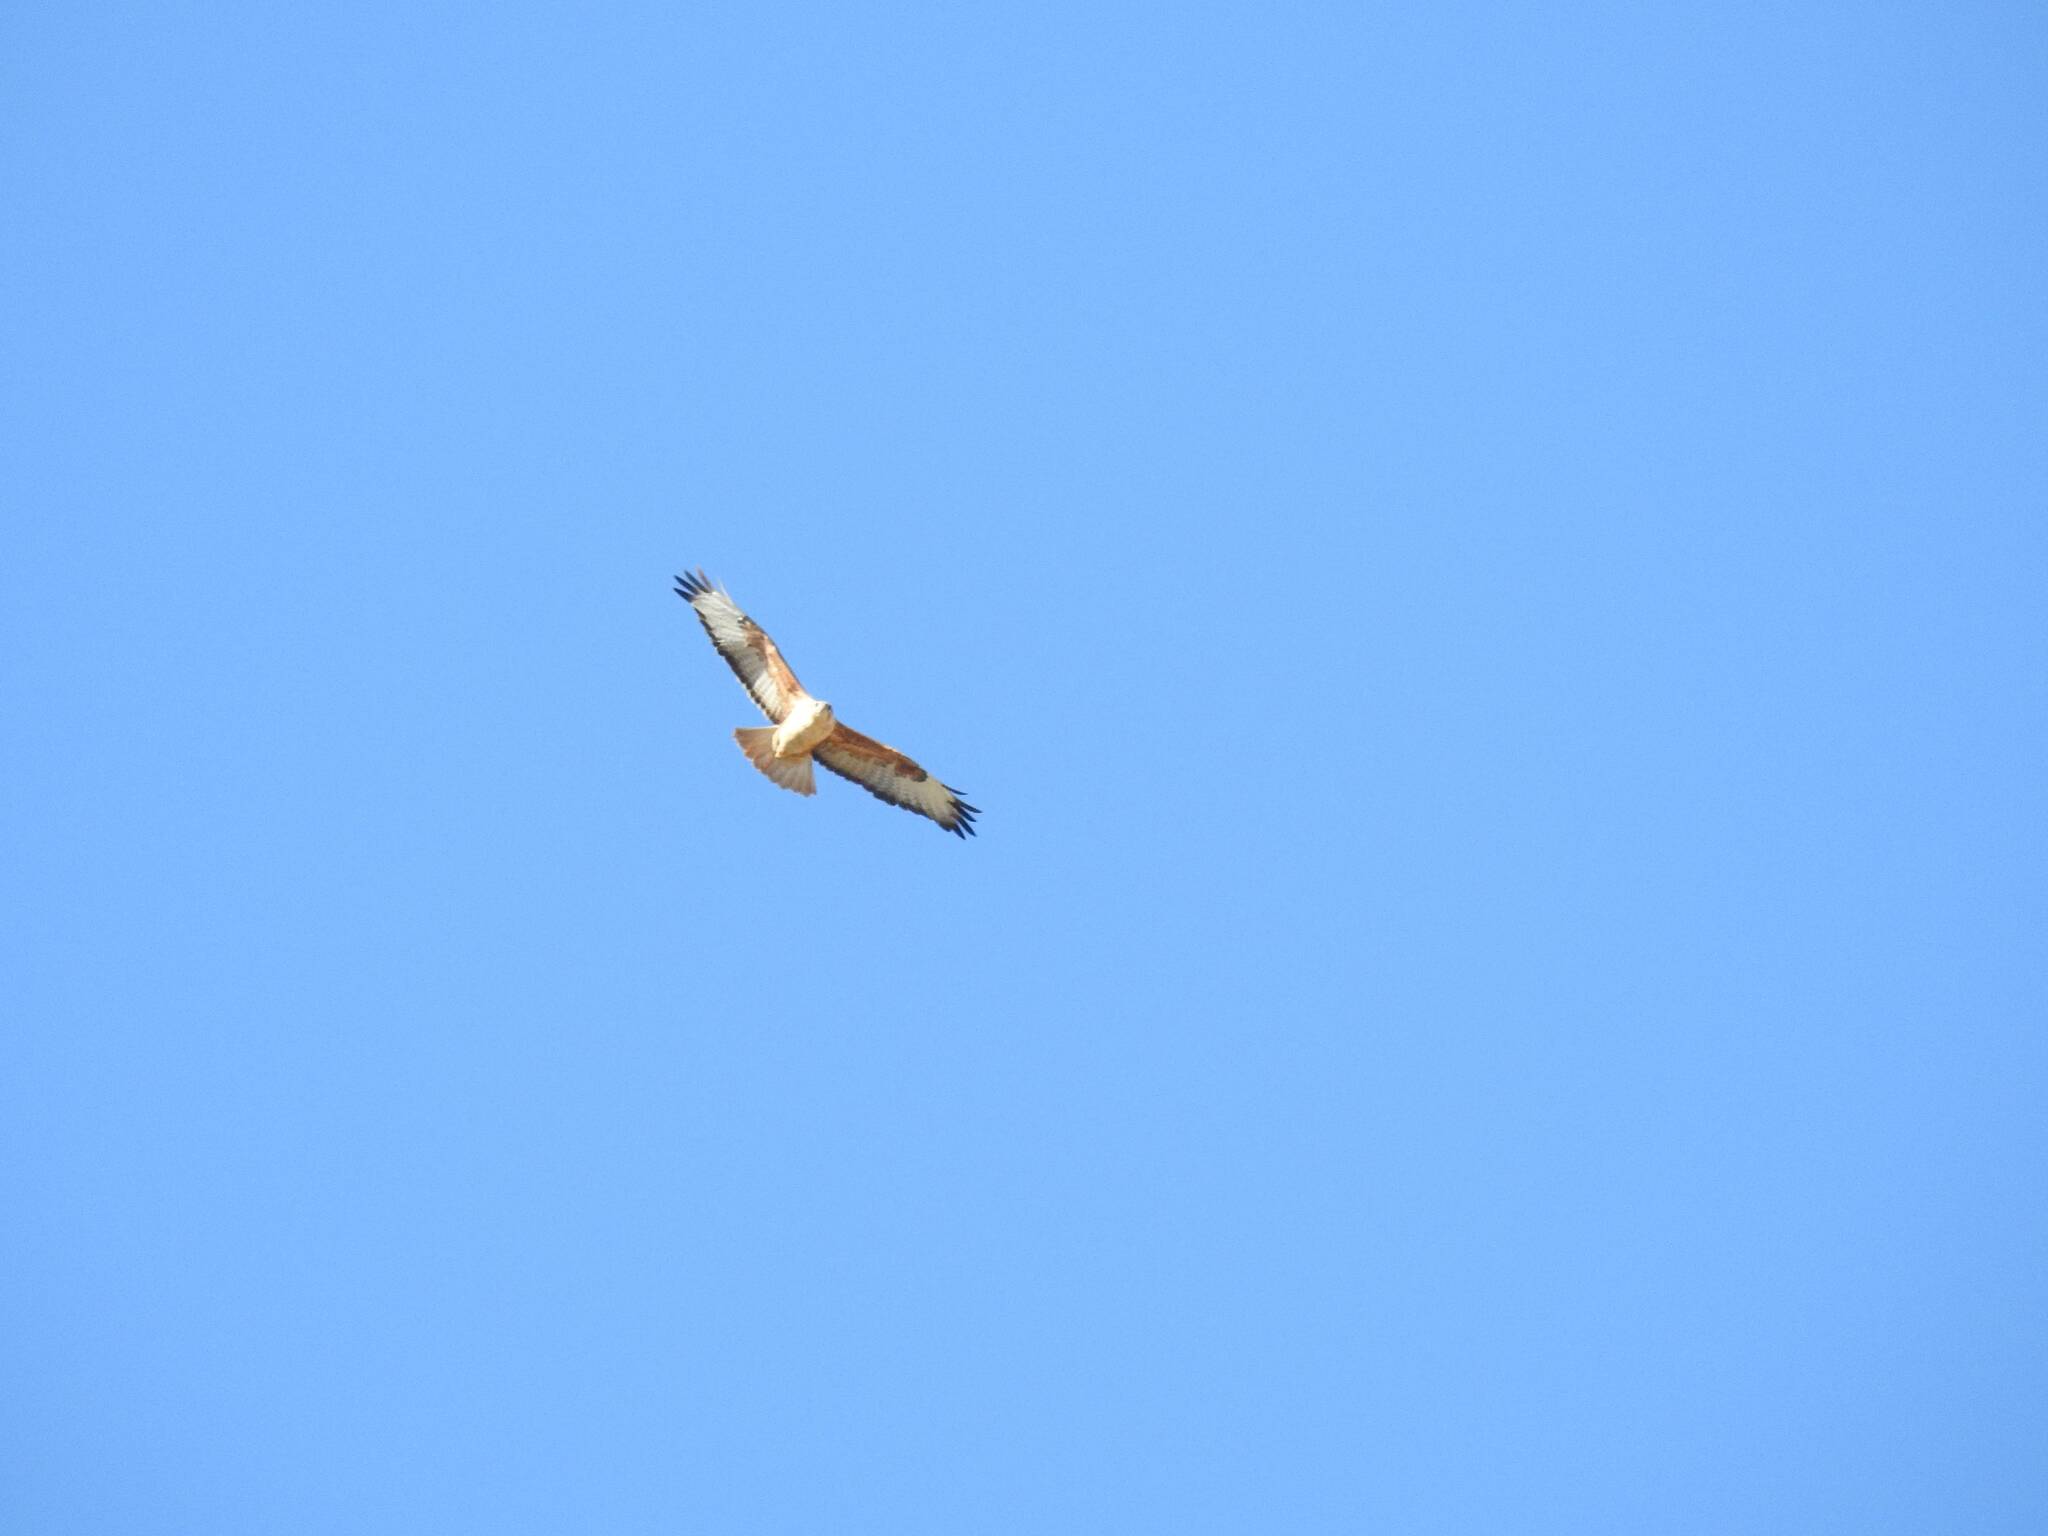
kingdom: Animalia
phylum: Chordata
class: Aves
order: Accipitriformes
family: Accipitridae
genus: Buteo
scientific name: Buteo rufinus
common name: Long-legged buzzard
